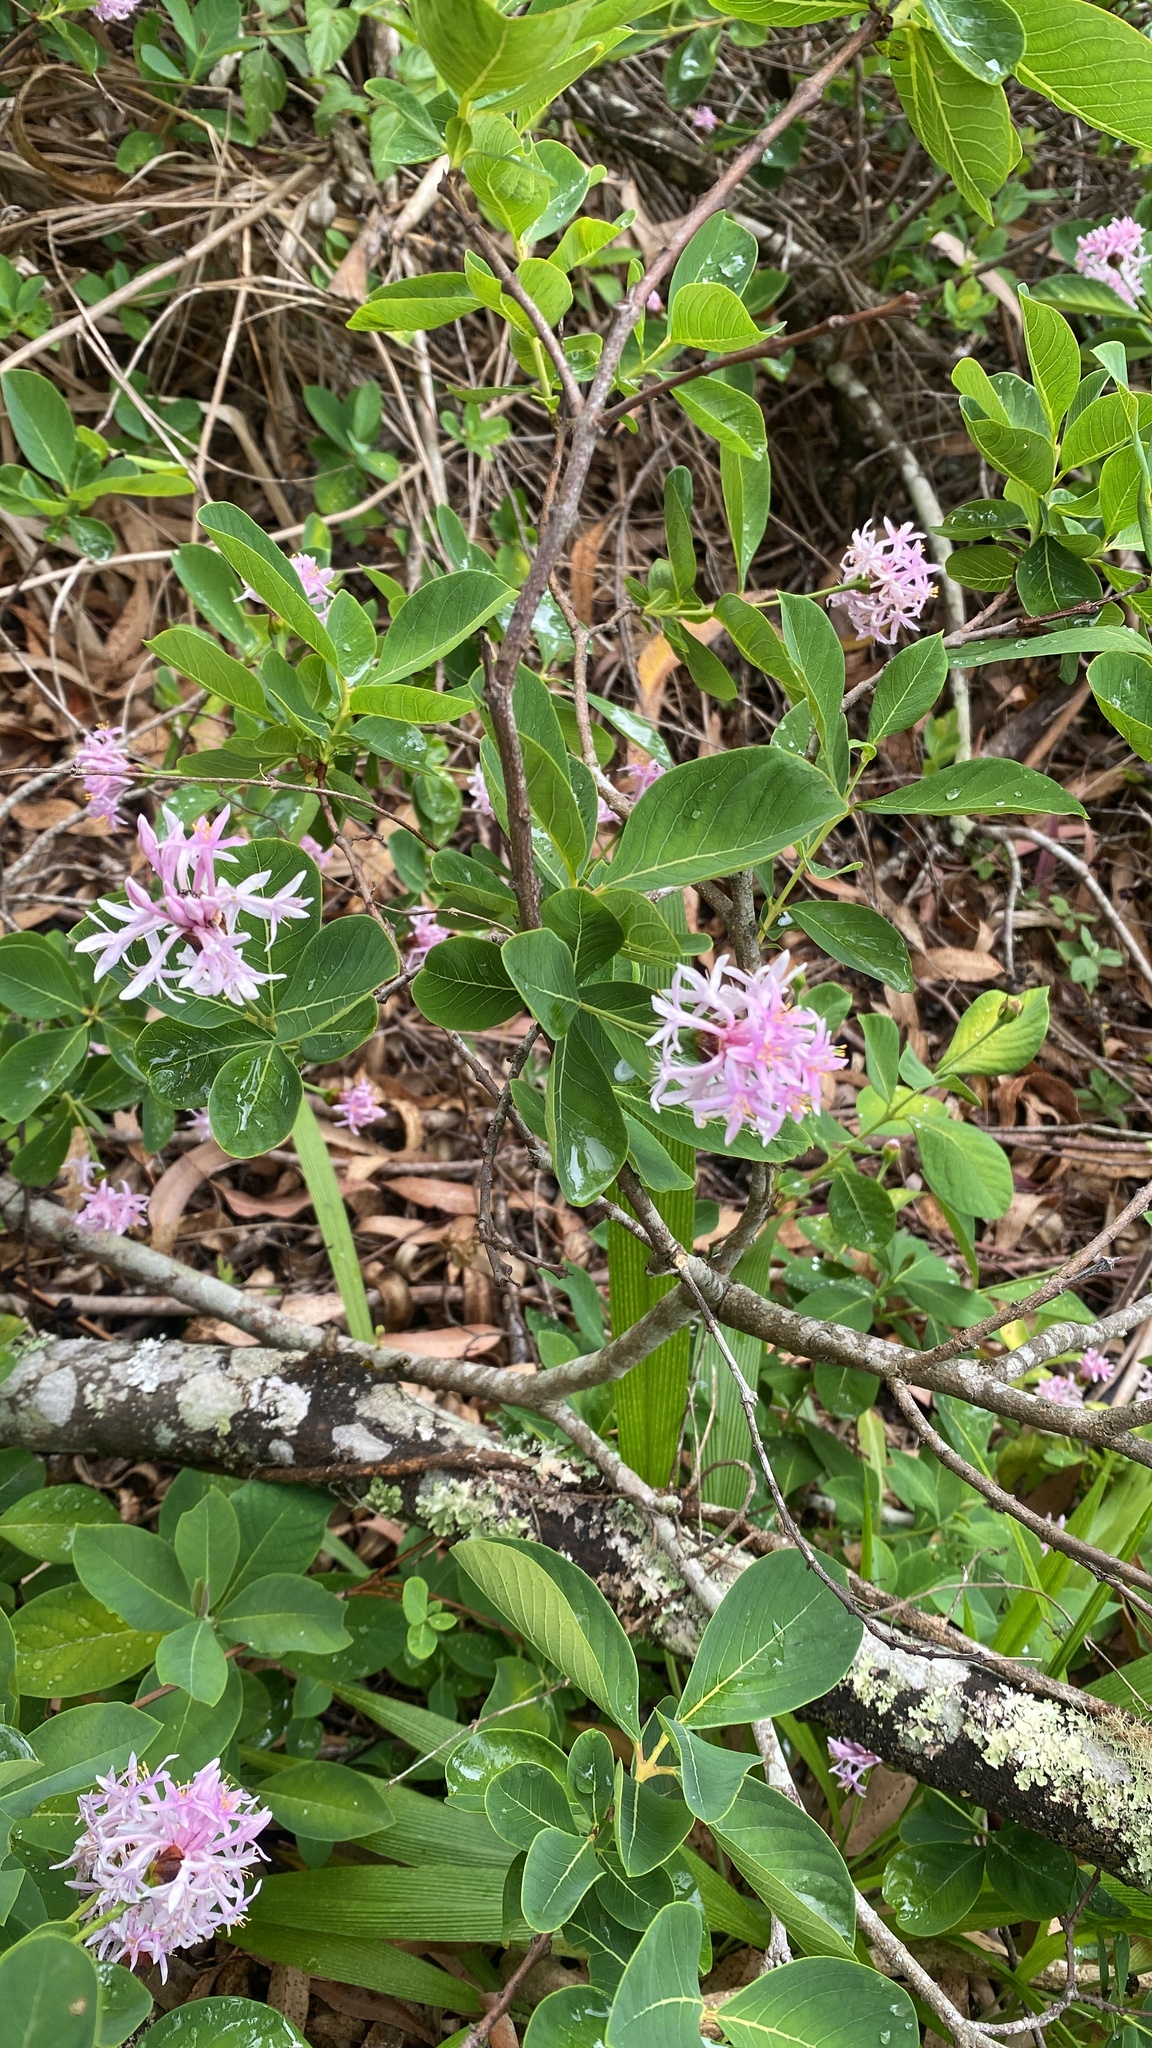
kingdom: Plantae
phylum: Tracheophyta
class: Magnoliopsida
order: Malvales
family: Thymelaeaceae
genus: Dais
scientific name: Dais cotinifolia
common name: Pompon tree
